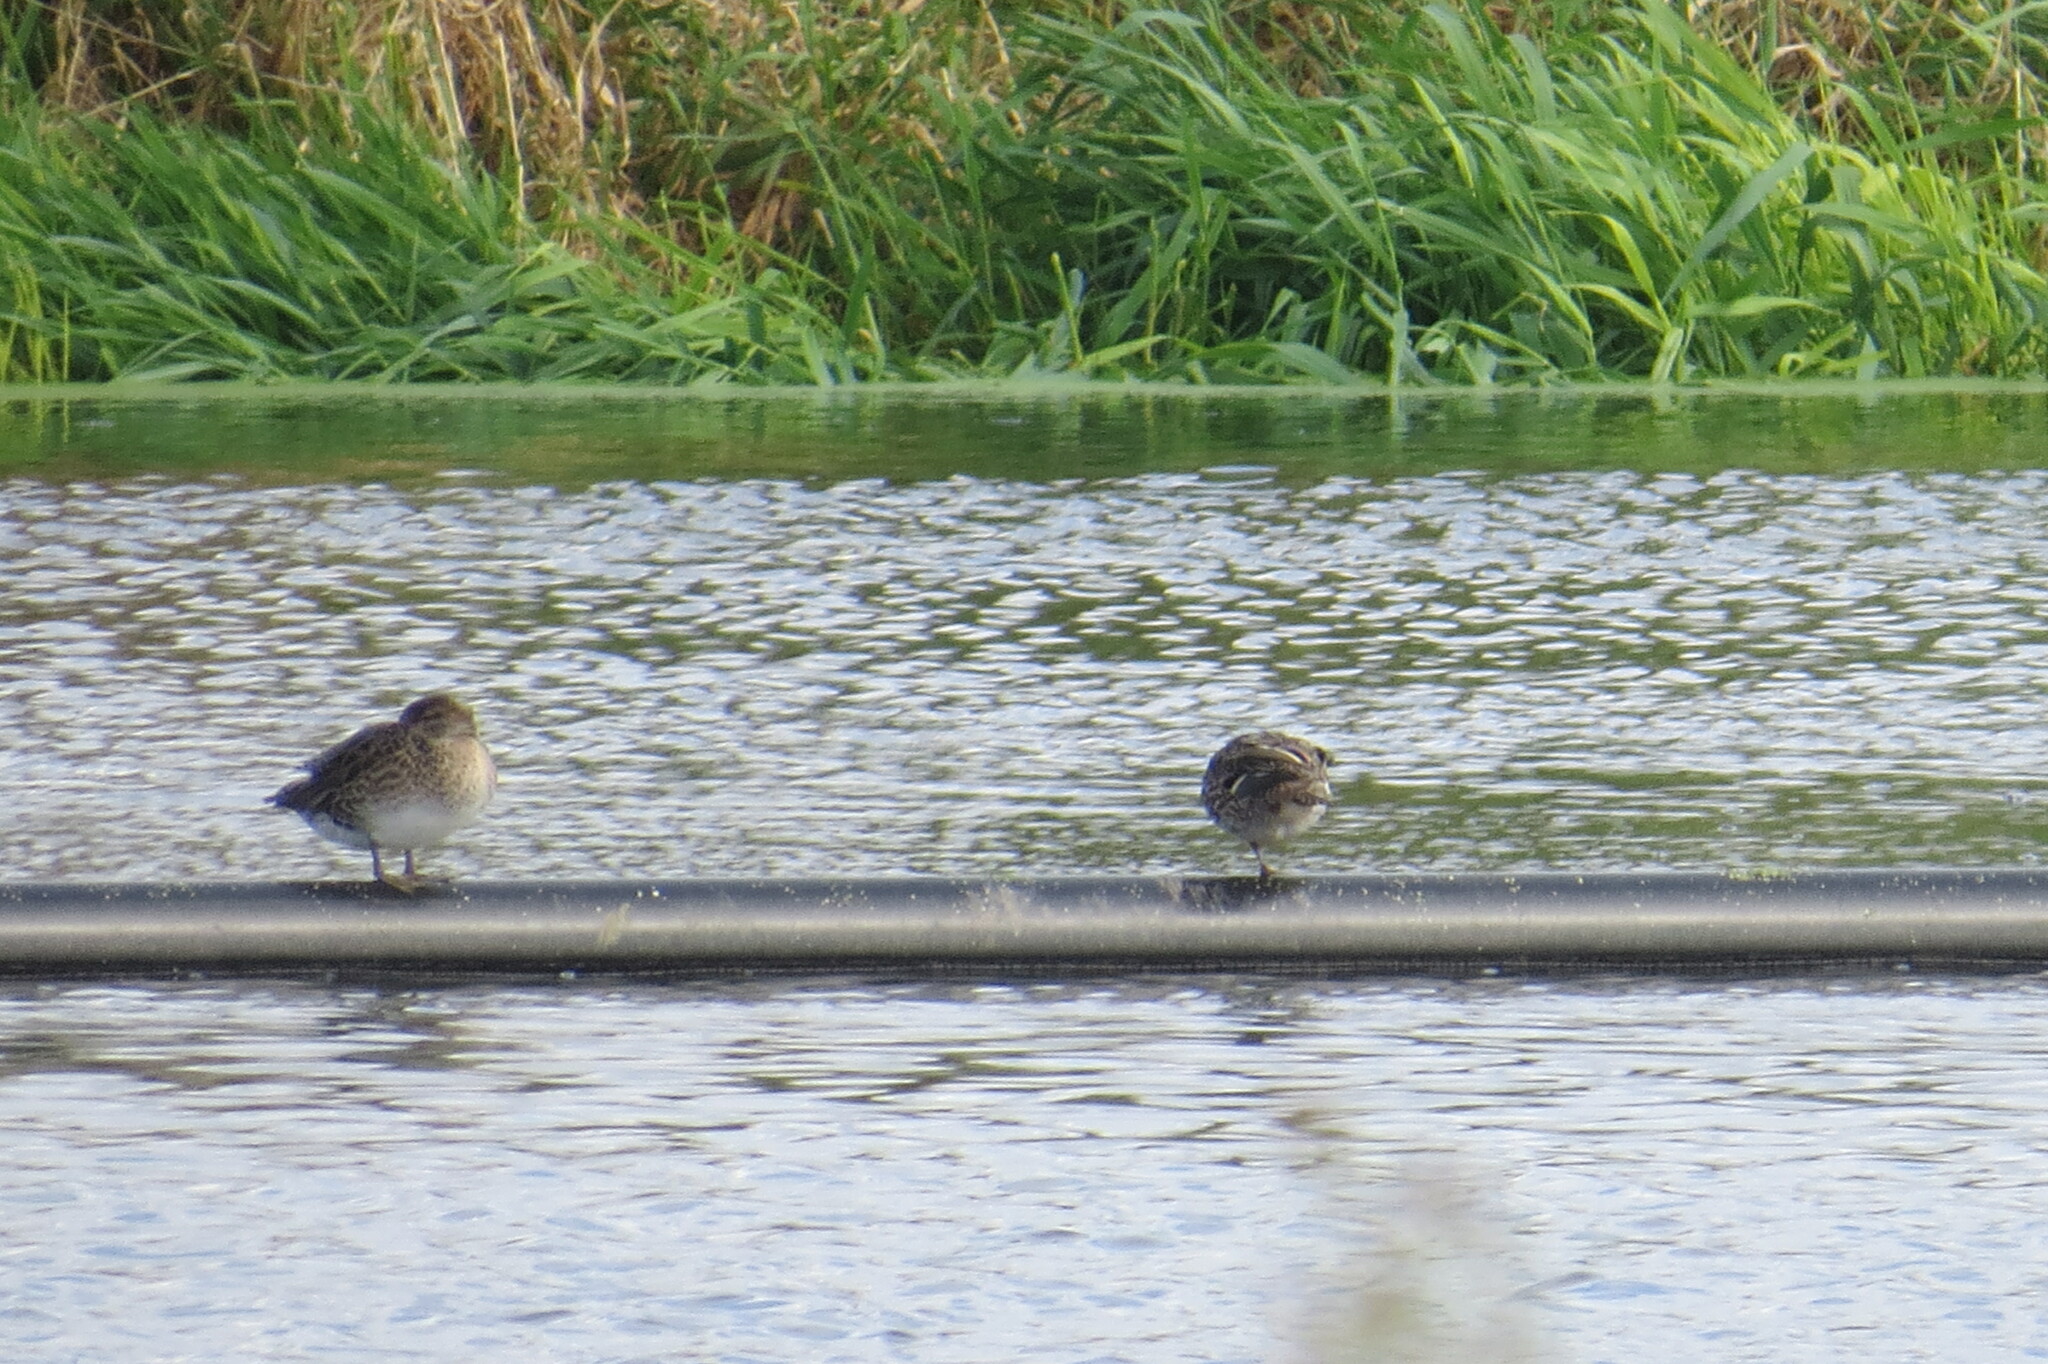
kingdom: Animalia
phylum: Chordata
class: Aves
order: Anseriformes
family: Anatidae
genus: Anas
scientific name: Anas crecca
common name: Eurasian teal
